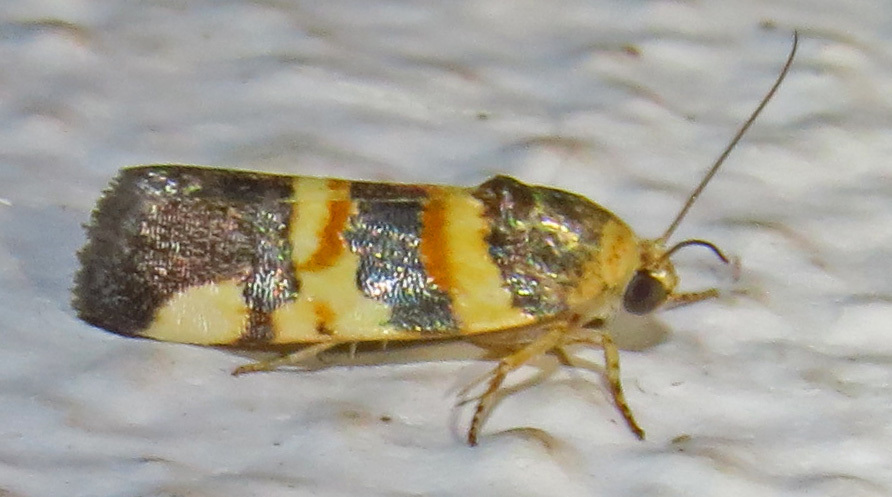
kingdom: Animalia
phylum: Arthropoda
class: Insecta
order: Lepidoptera
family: Noctuidae
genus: Spragueia
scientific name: Spragueia funeralis
